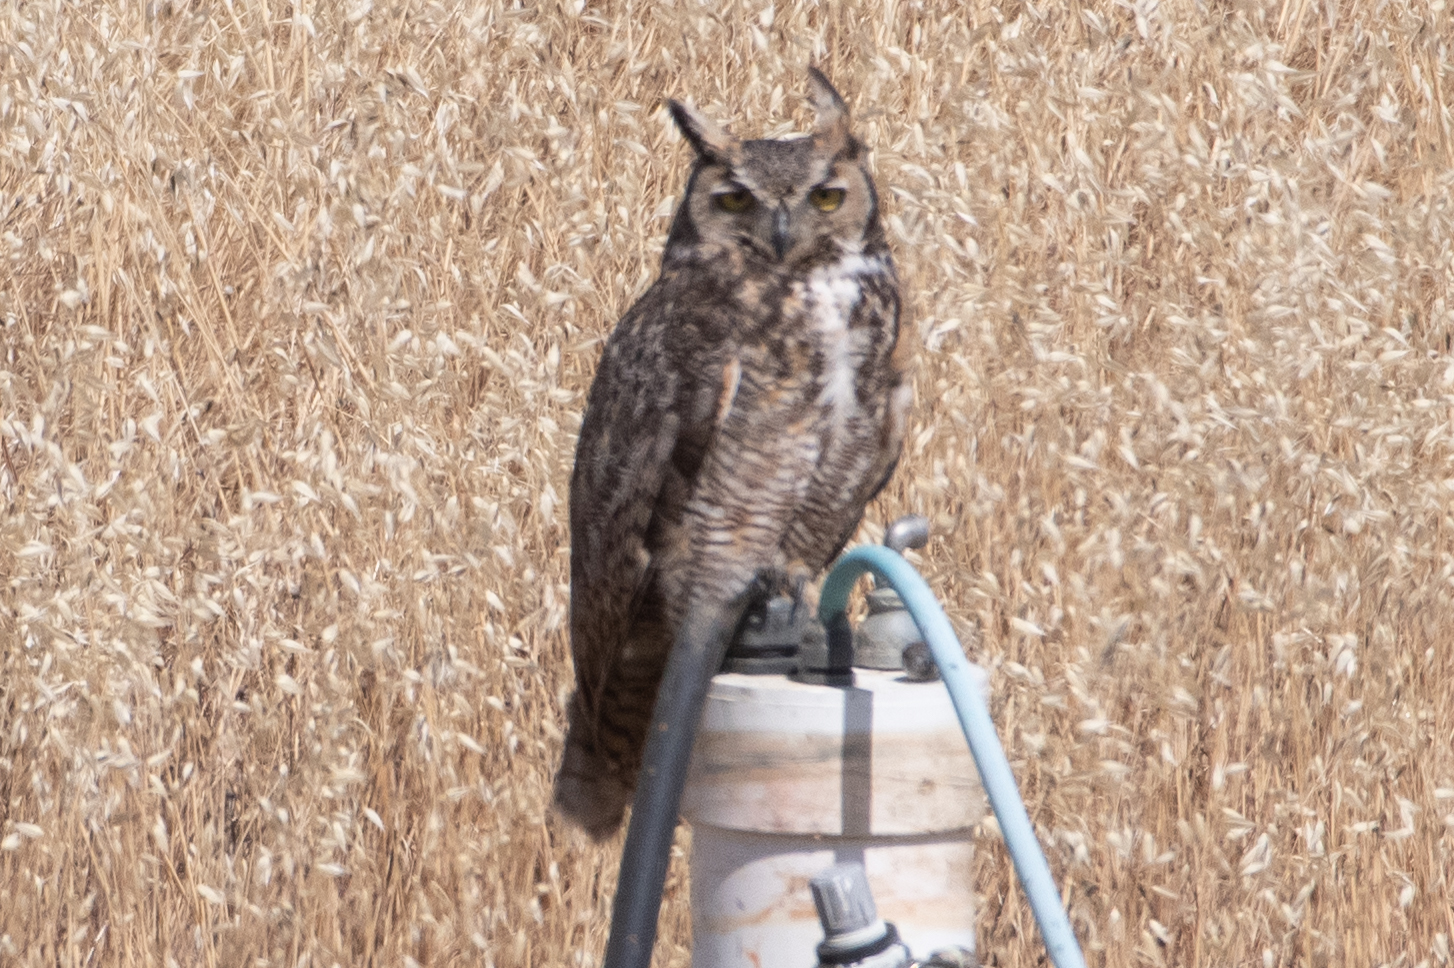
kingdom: Animalia
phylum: Chordata
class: Aves
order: Strigiformes
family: Strigidae
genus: Bubo
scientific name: Bubo virginianus
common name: Great horned owl
